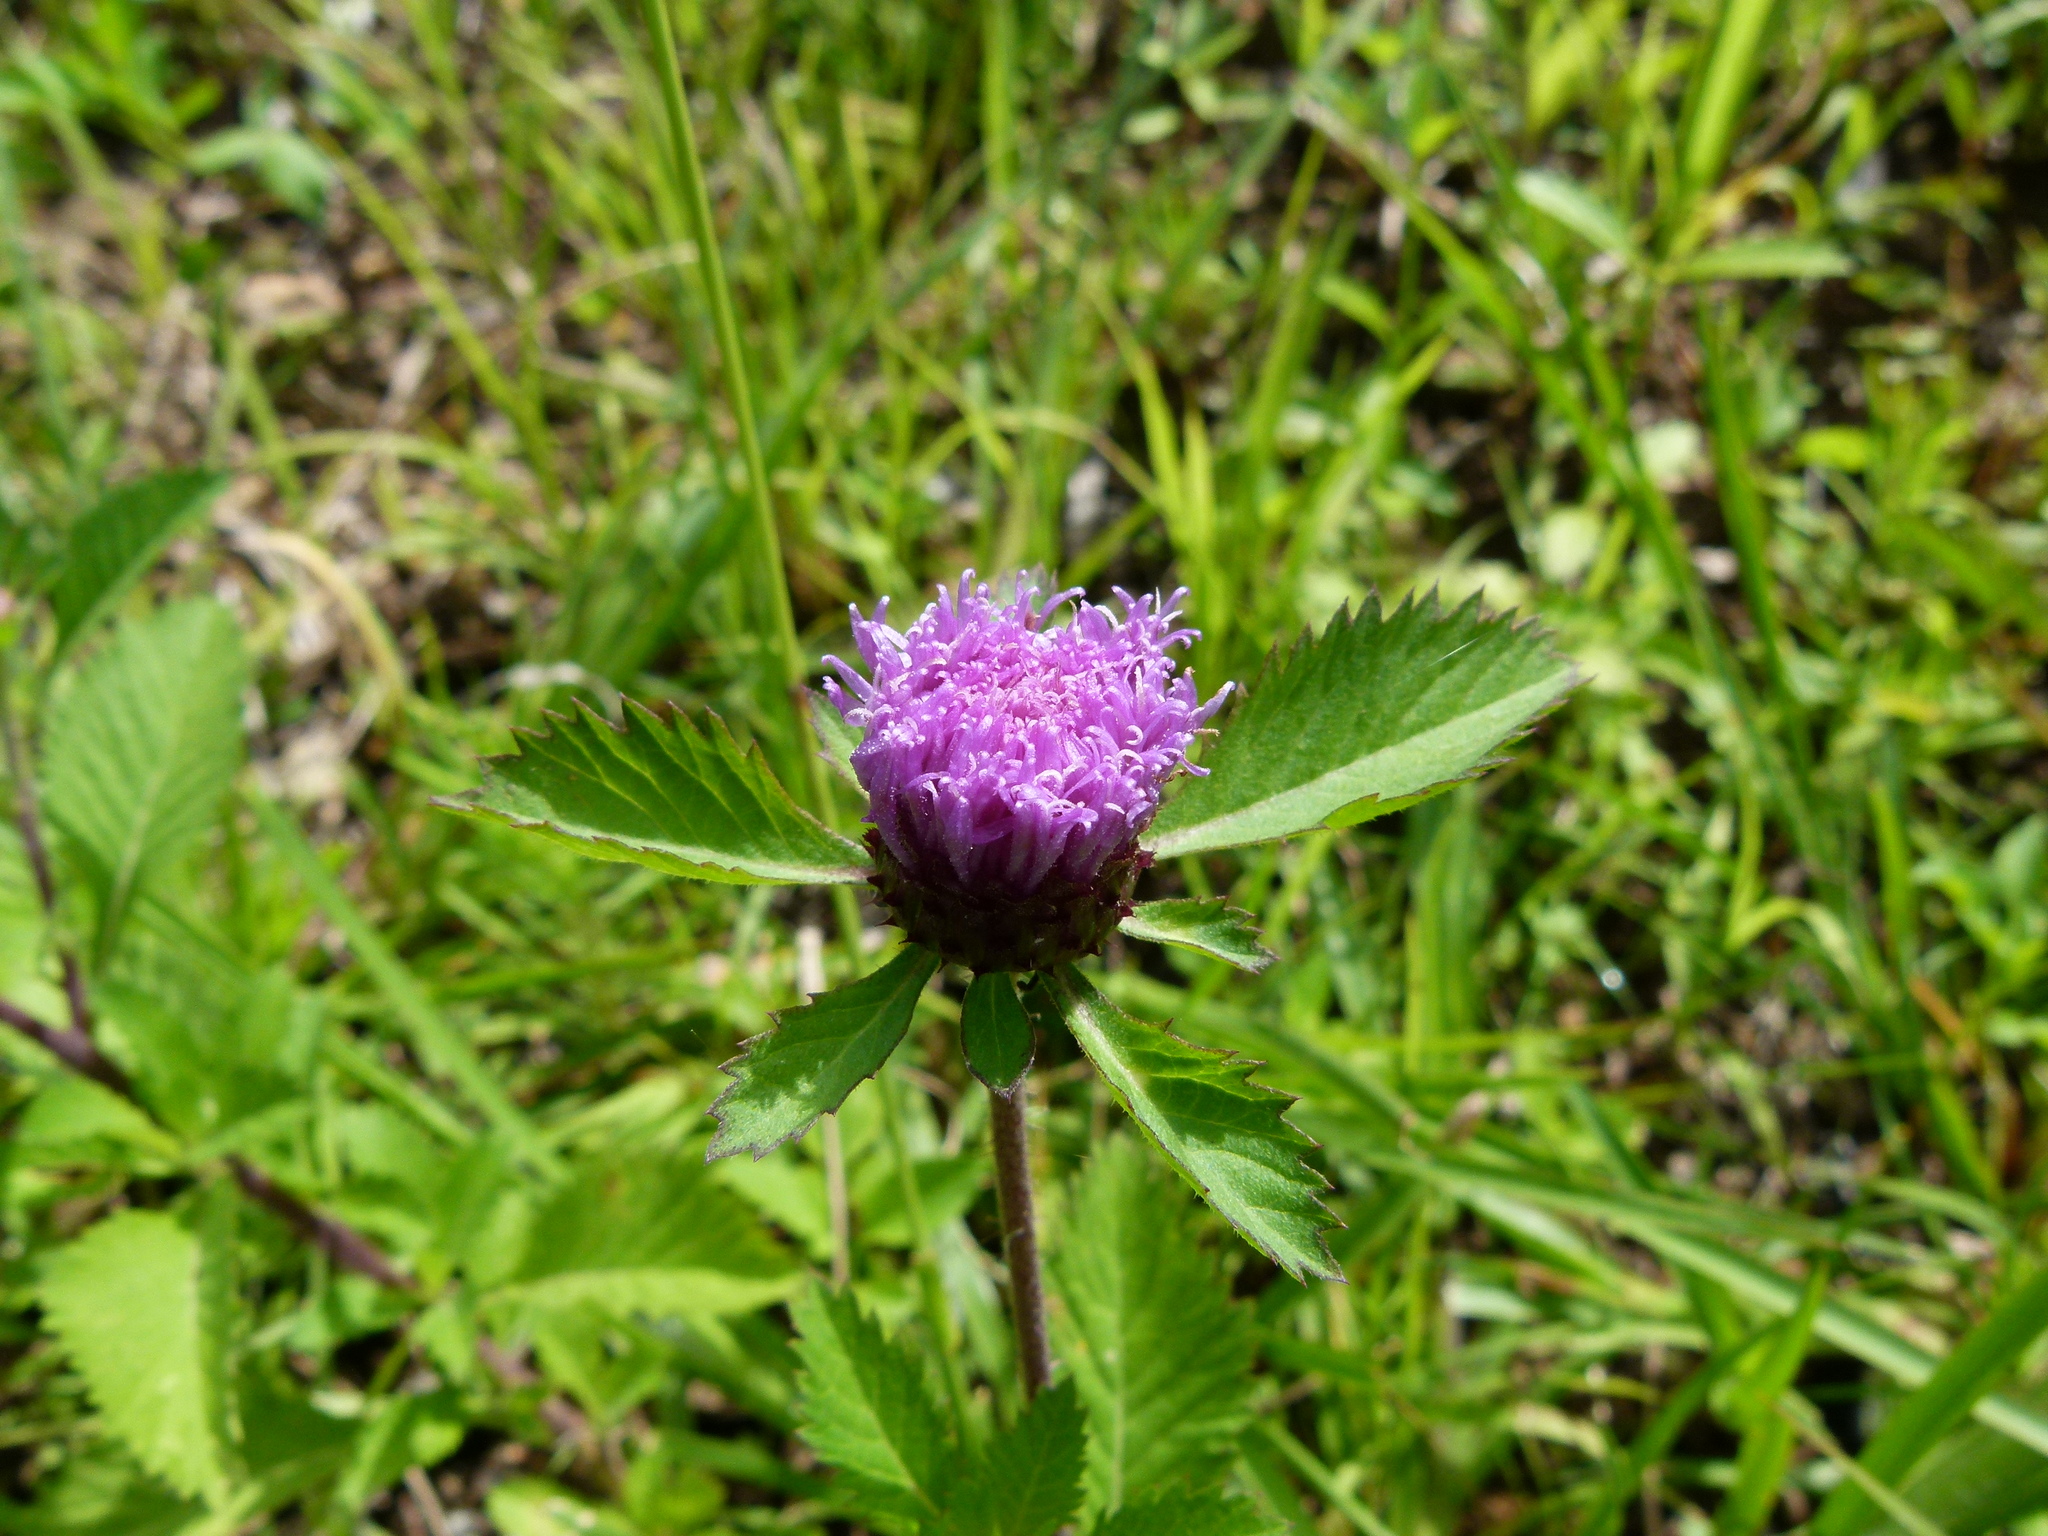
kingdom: Plantae
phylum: Tracheophyta
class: Magnoliopsida
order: Asterales
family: Asteraceae
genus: Centratherum
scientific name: Centratherum punctatum
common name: Larkdaisy
